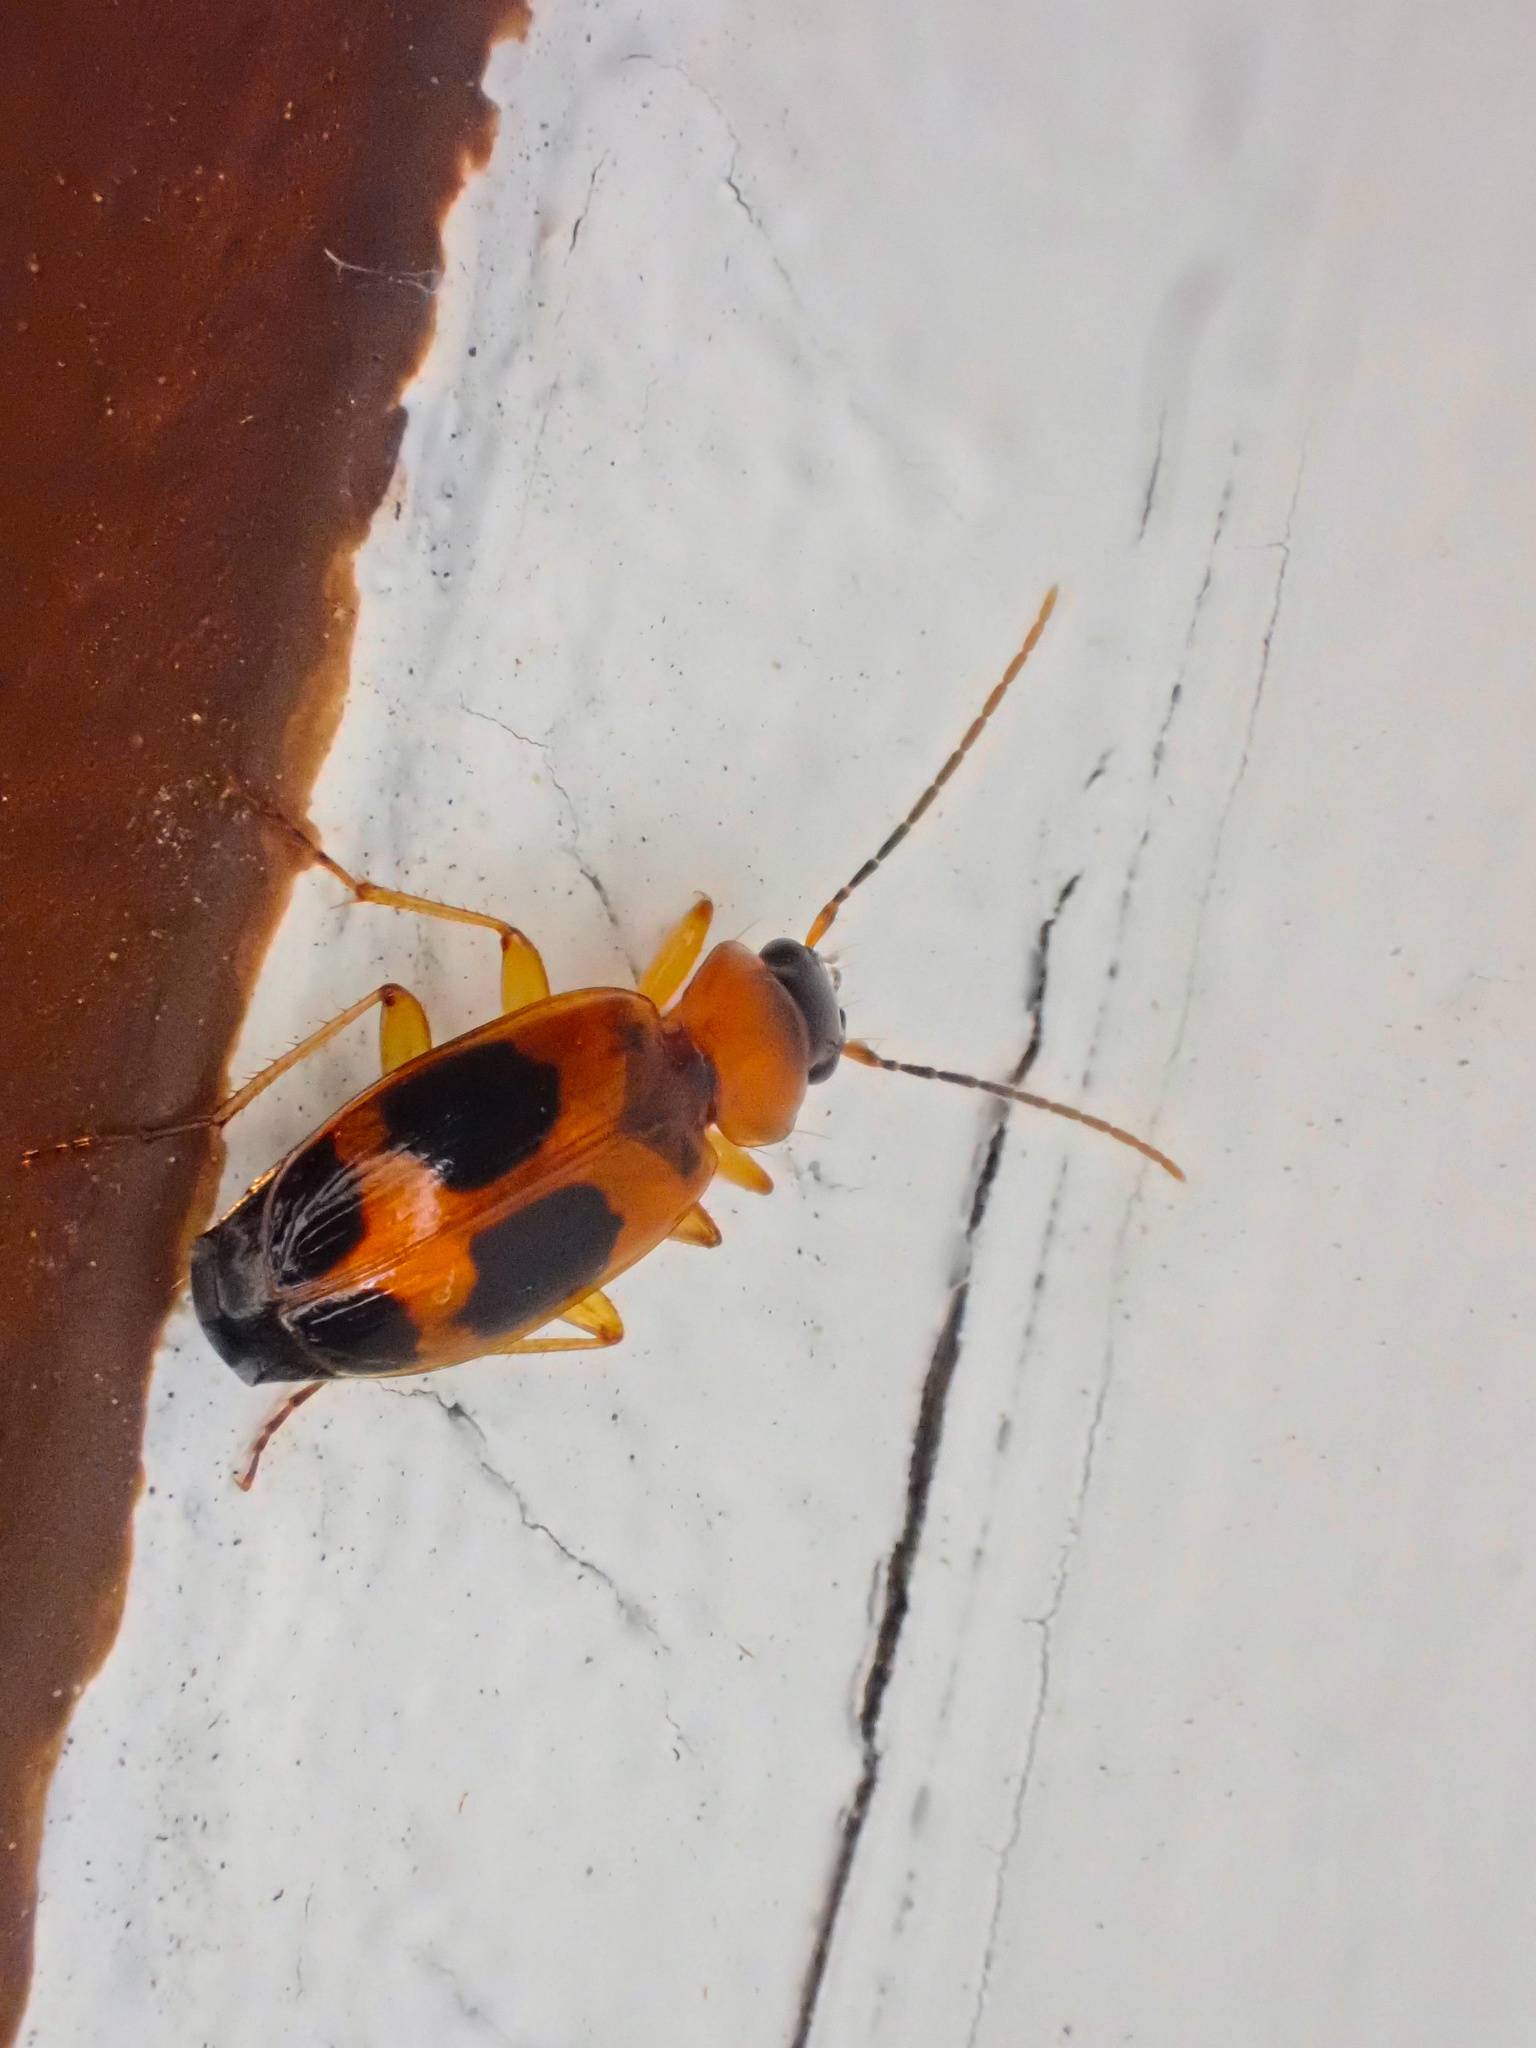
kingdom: Animalia
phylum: Arthropoda
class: Insecta
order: Coleoptera
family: Carabidae
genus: Badister
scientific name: Badister neopulchellus
